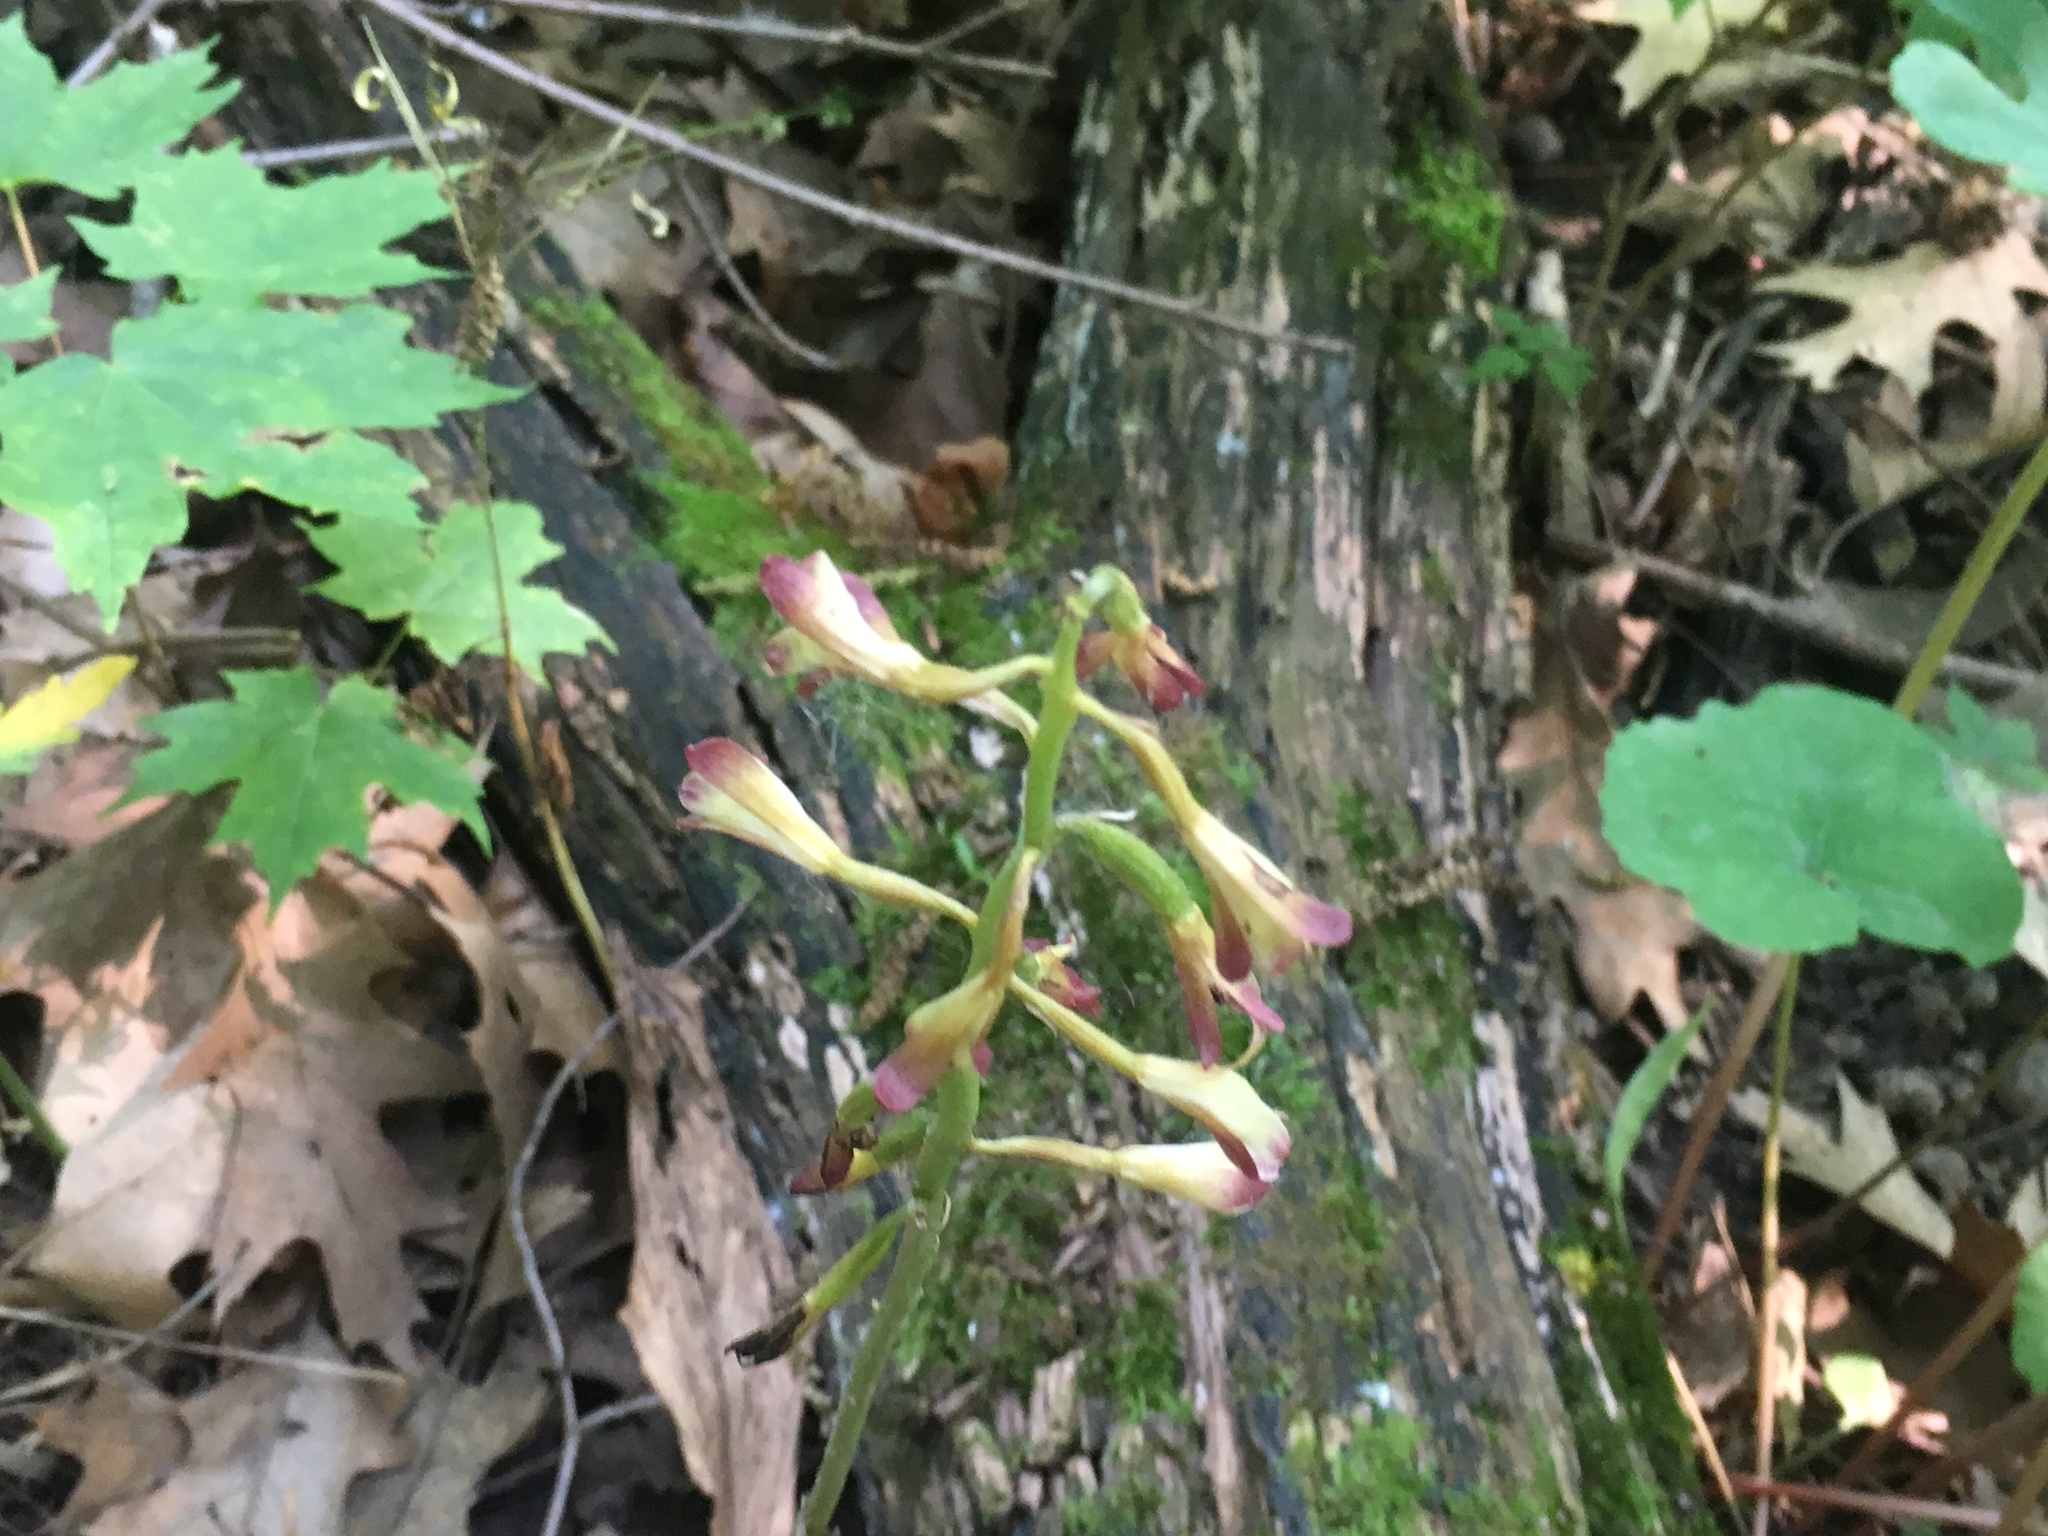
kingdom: Plantae
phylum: Tracheophyta
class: Liliopsida
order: Asparagales
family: Orchidaceae
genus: Aplectrum
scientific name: Aplectrum hyemale
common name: Adam-and-eve
